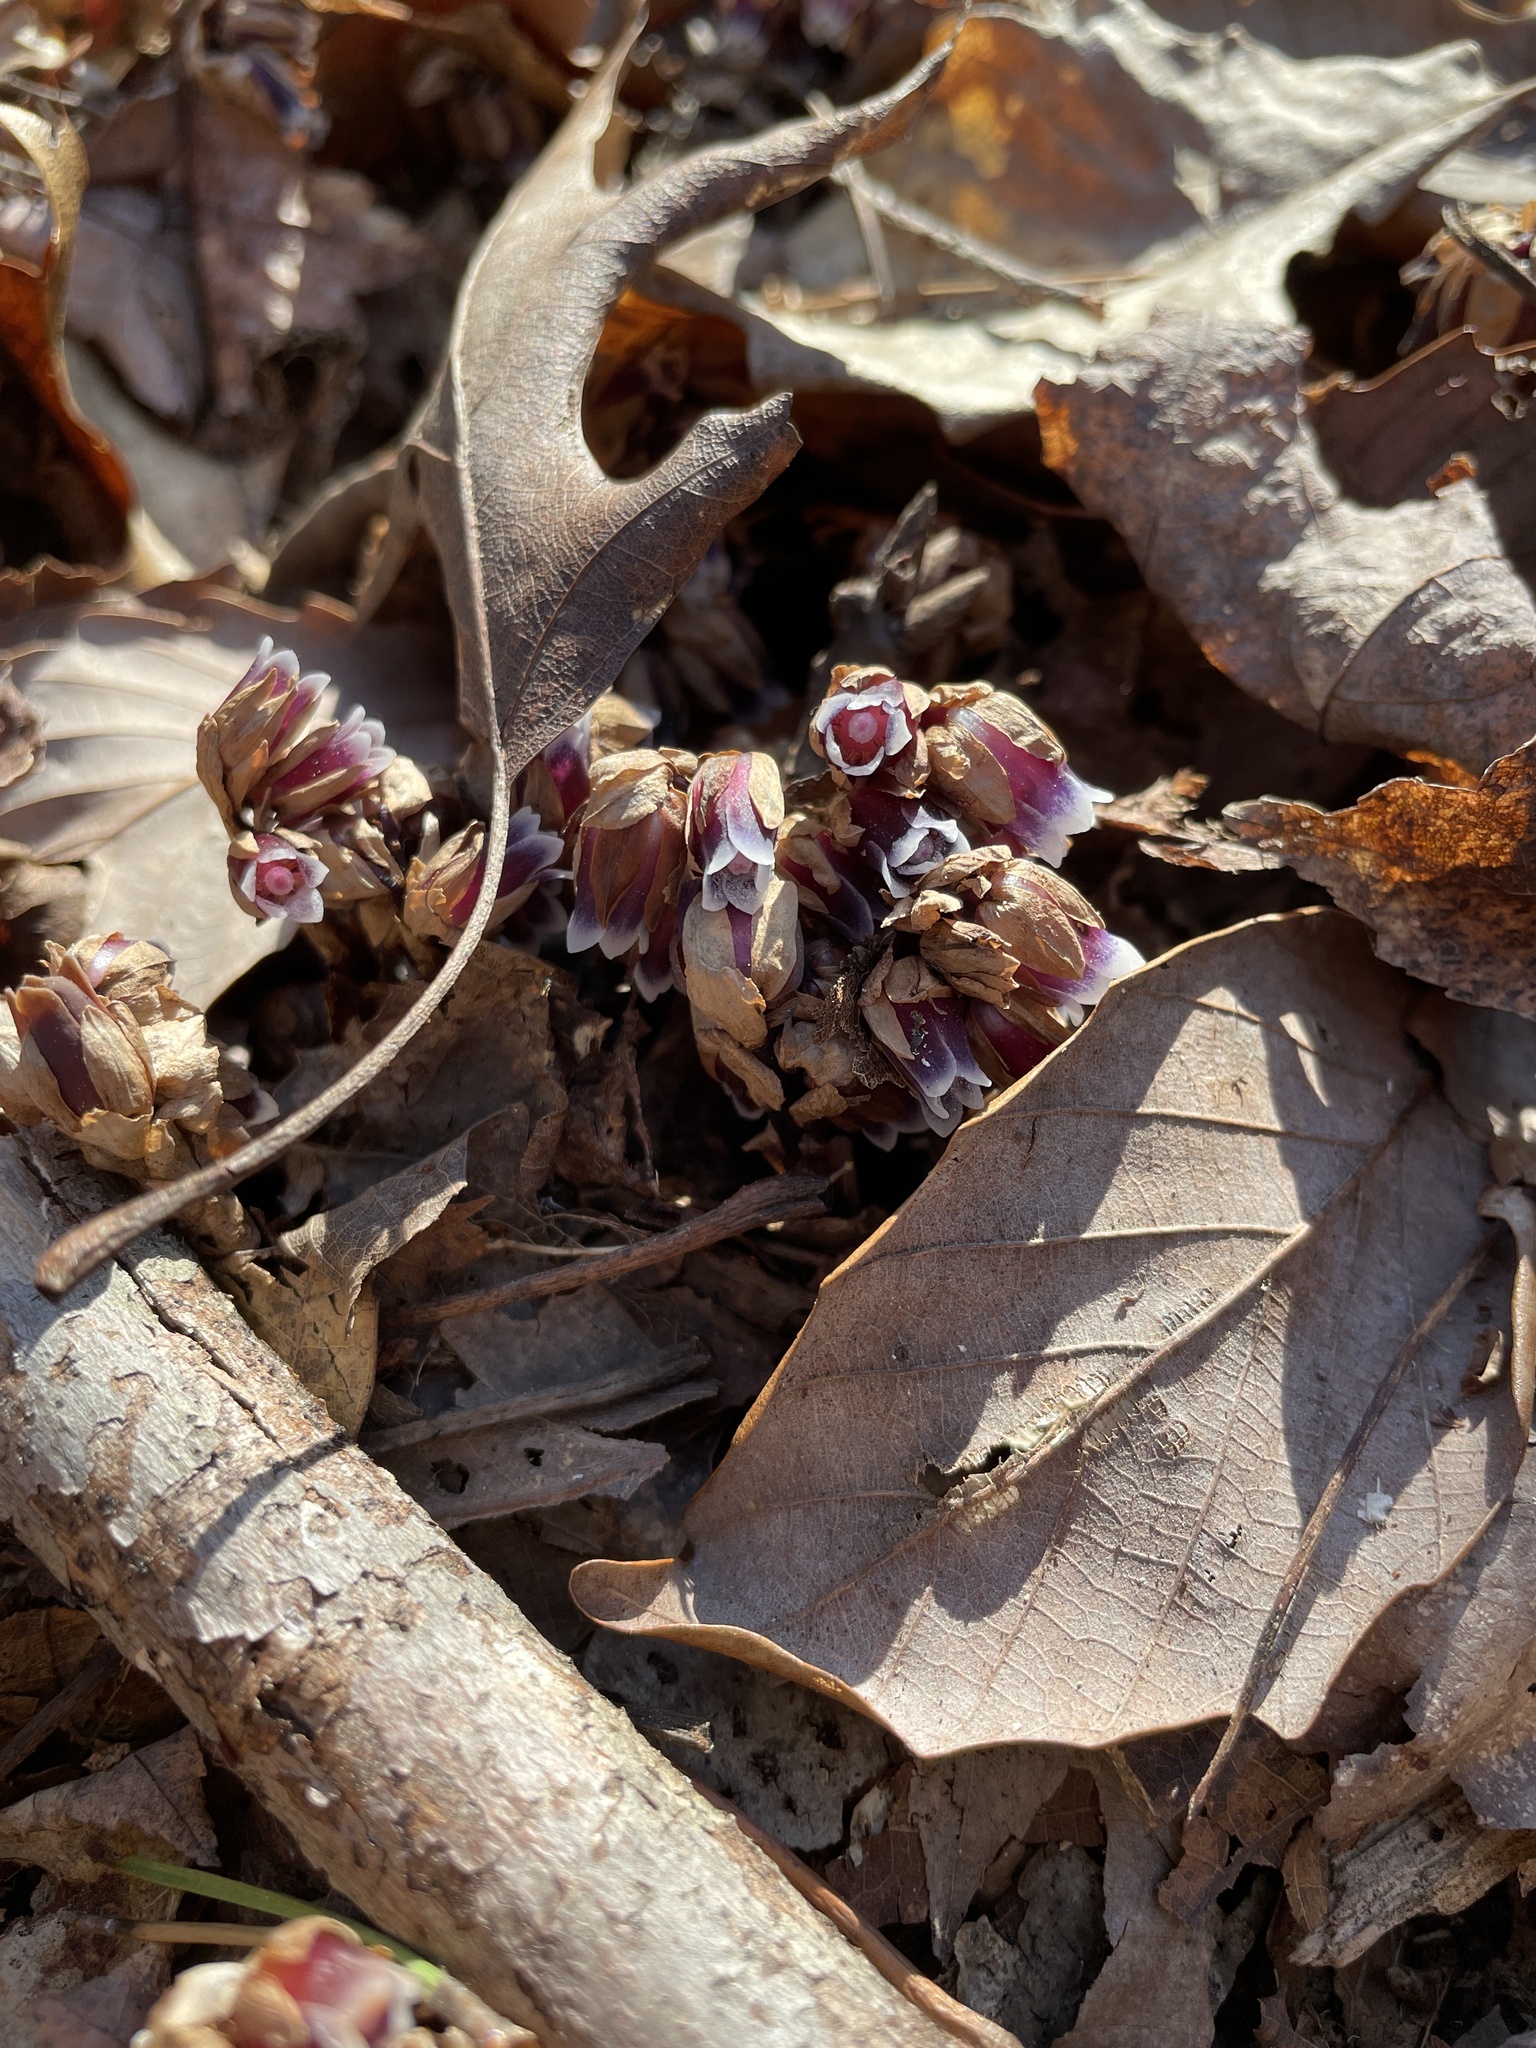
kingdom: Plantae
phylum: Tracheophyta
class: Magnoliopsida
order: Ericales
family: Ericaceae
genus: Monotropsis
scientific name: Monotropsis odorata
